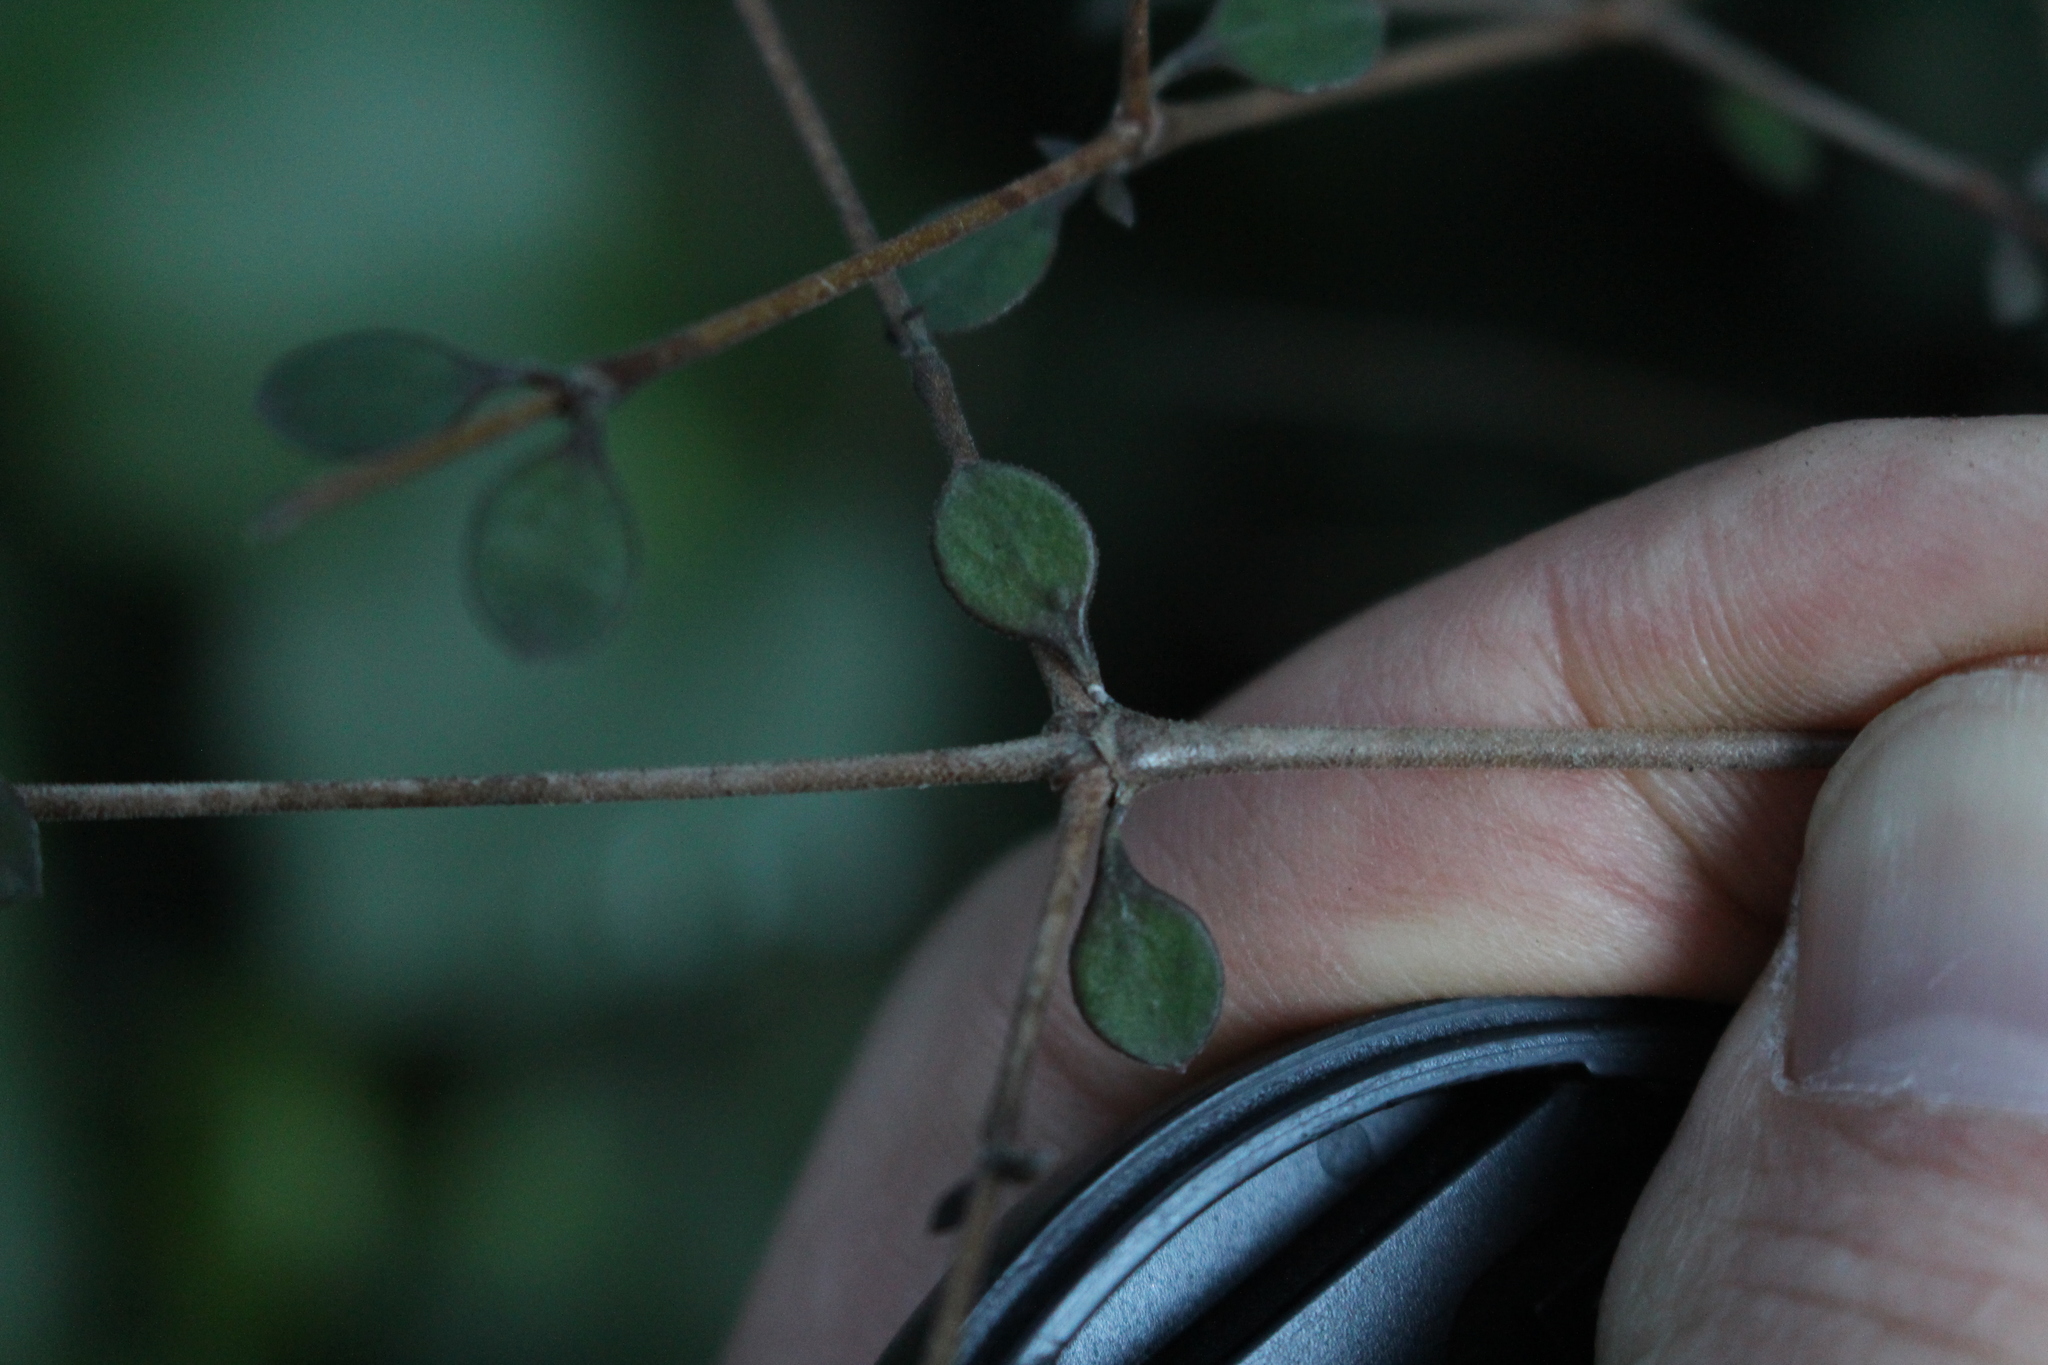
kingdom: Plantae
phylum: Tracheophyta
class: Magnoliopsida
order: Gentianales
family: Rubiaceae
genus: Coprosma
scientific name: Coprosma crassifolia
